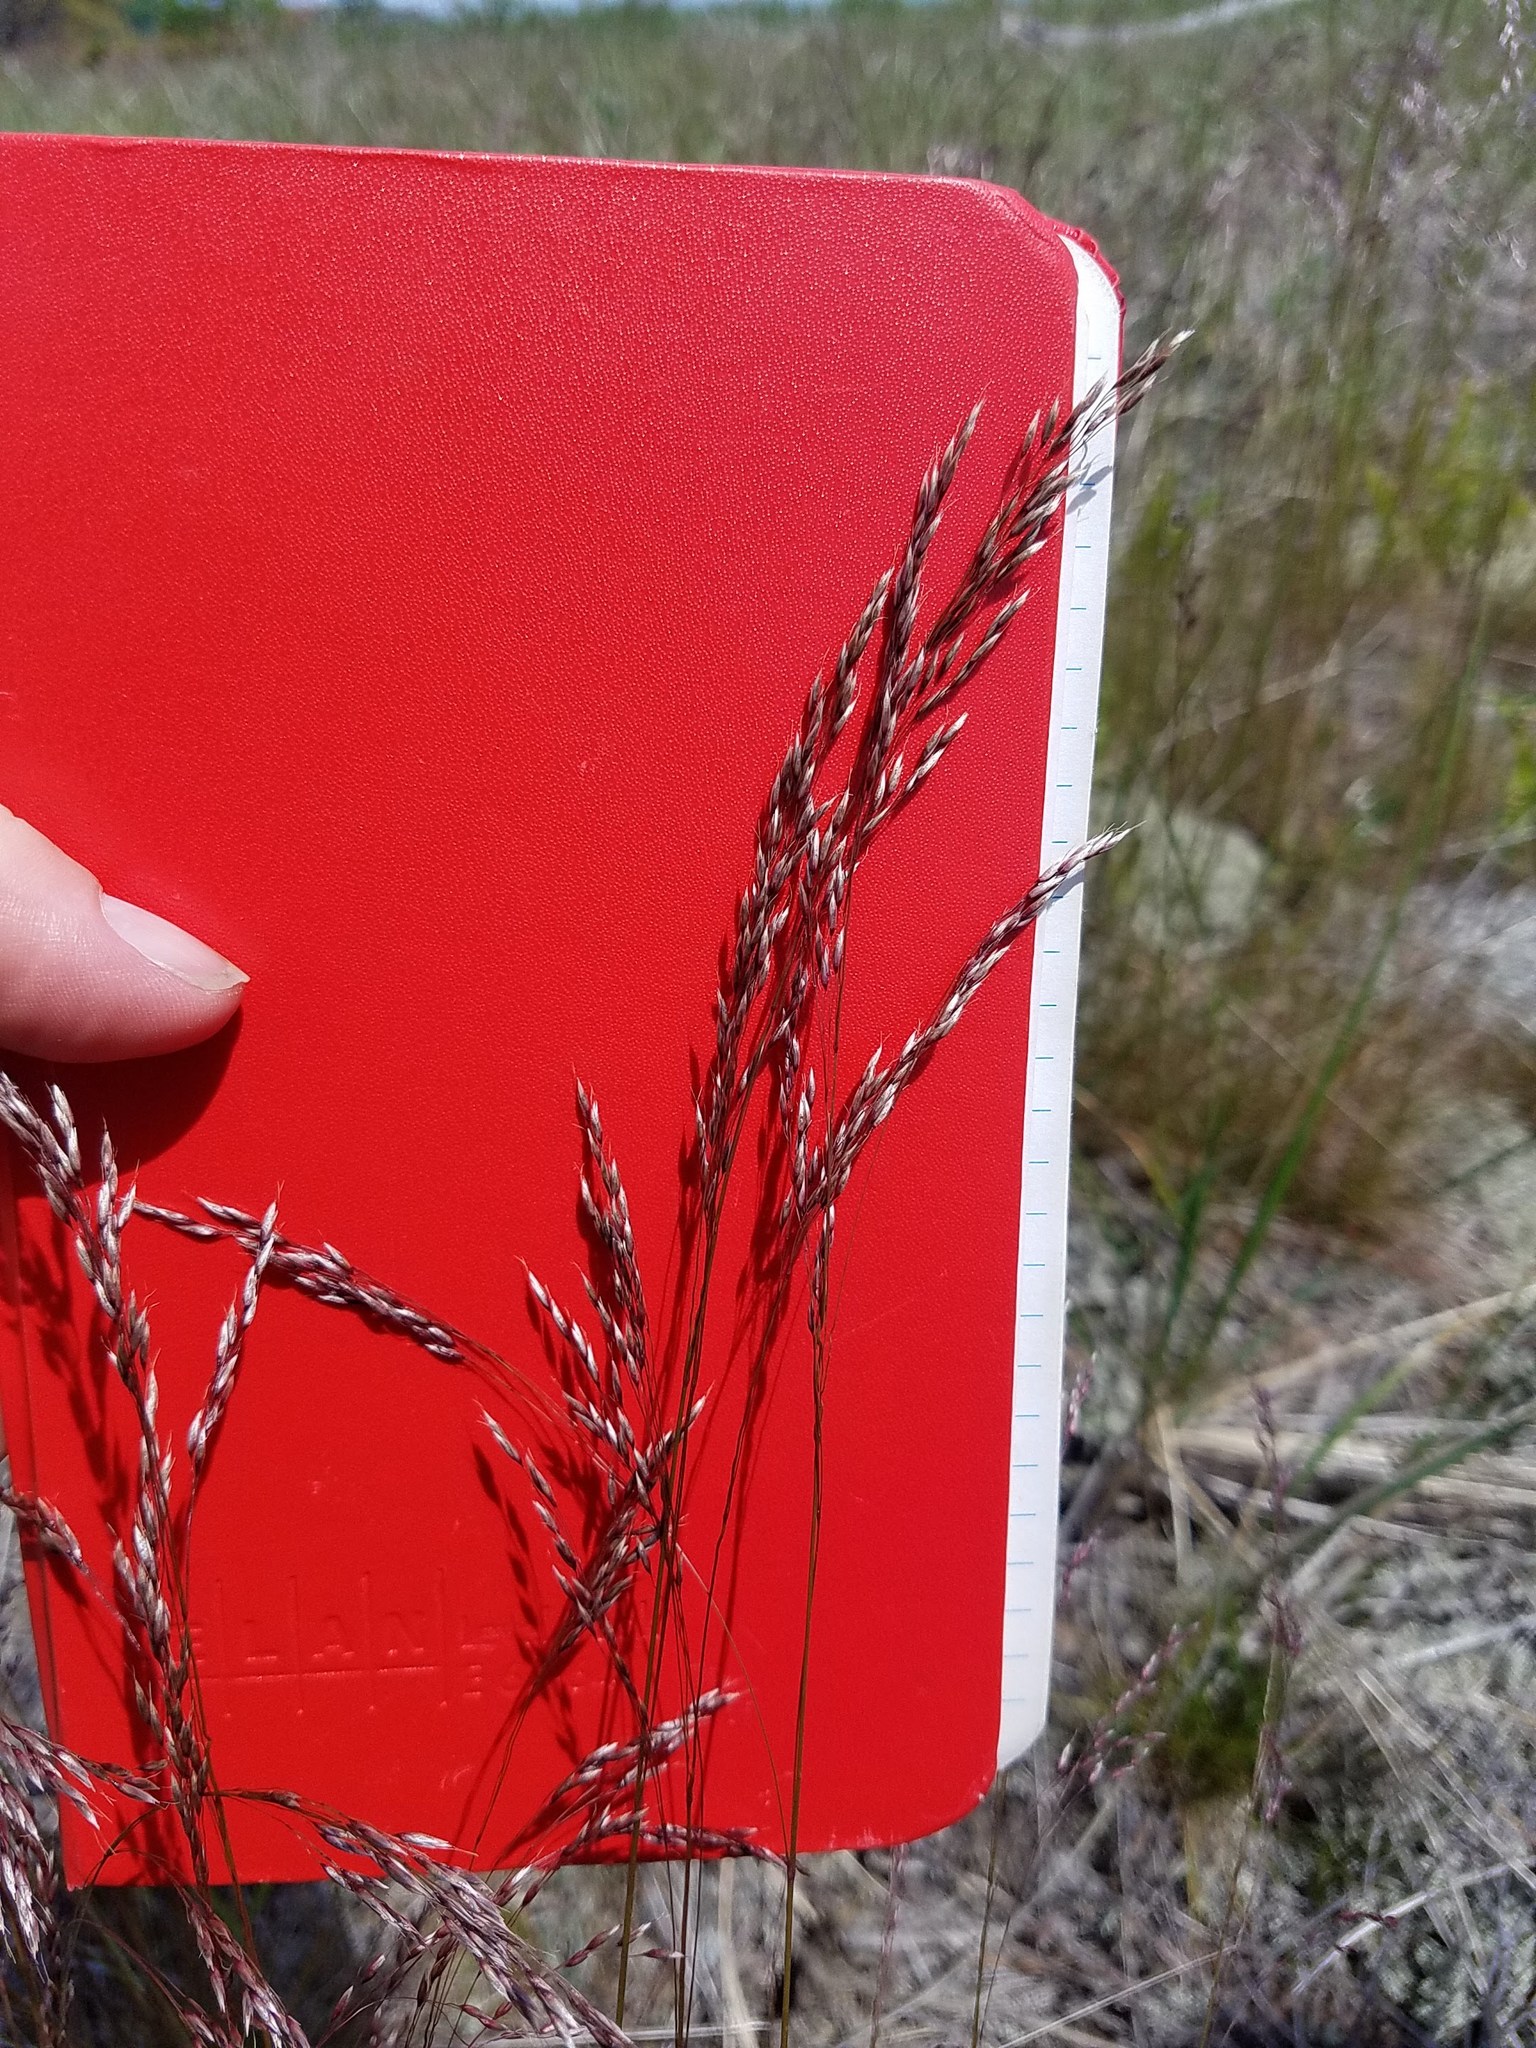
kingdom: Plantae
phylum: Tracheophyta
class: Liliopsida
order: Poales
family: Poaceae
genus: Avenella
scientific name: Avenella flexuosa
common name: Wavy hairgrass
